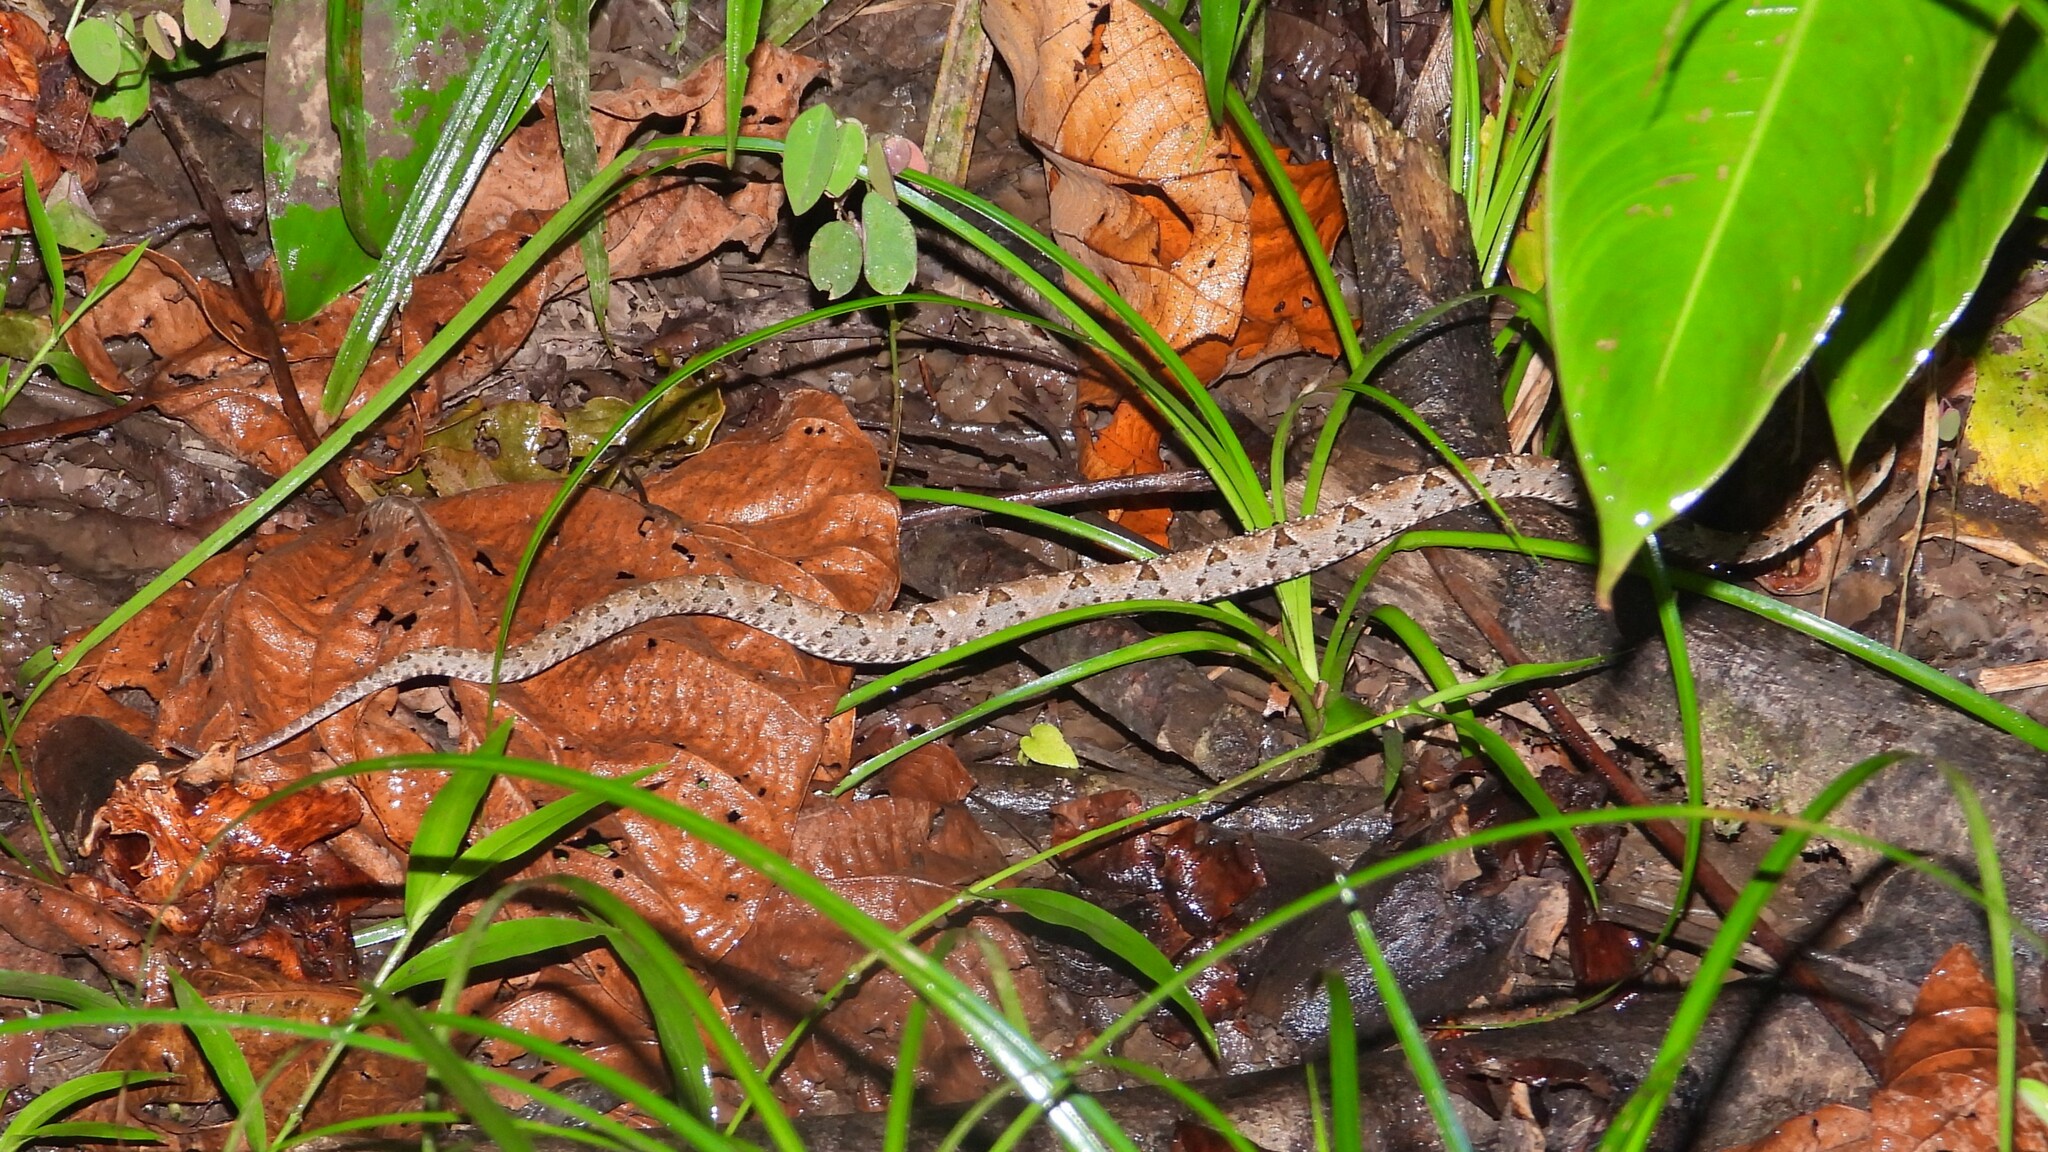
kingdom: Animalia
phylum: Chordata
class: Squamata
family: Viperidae
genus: Bothrops
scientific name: Bothrops asper
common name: Terciopelo
